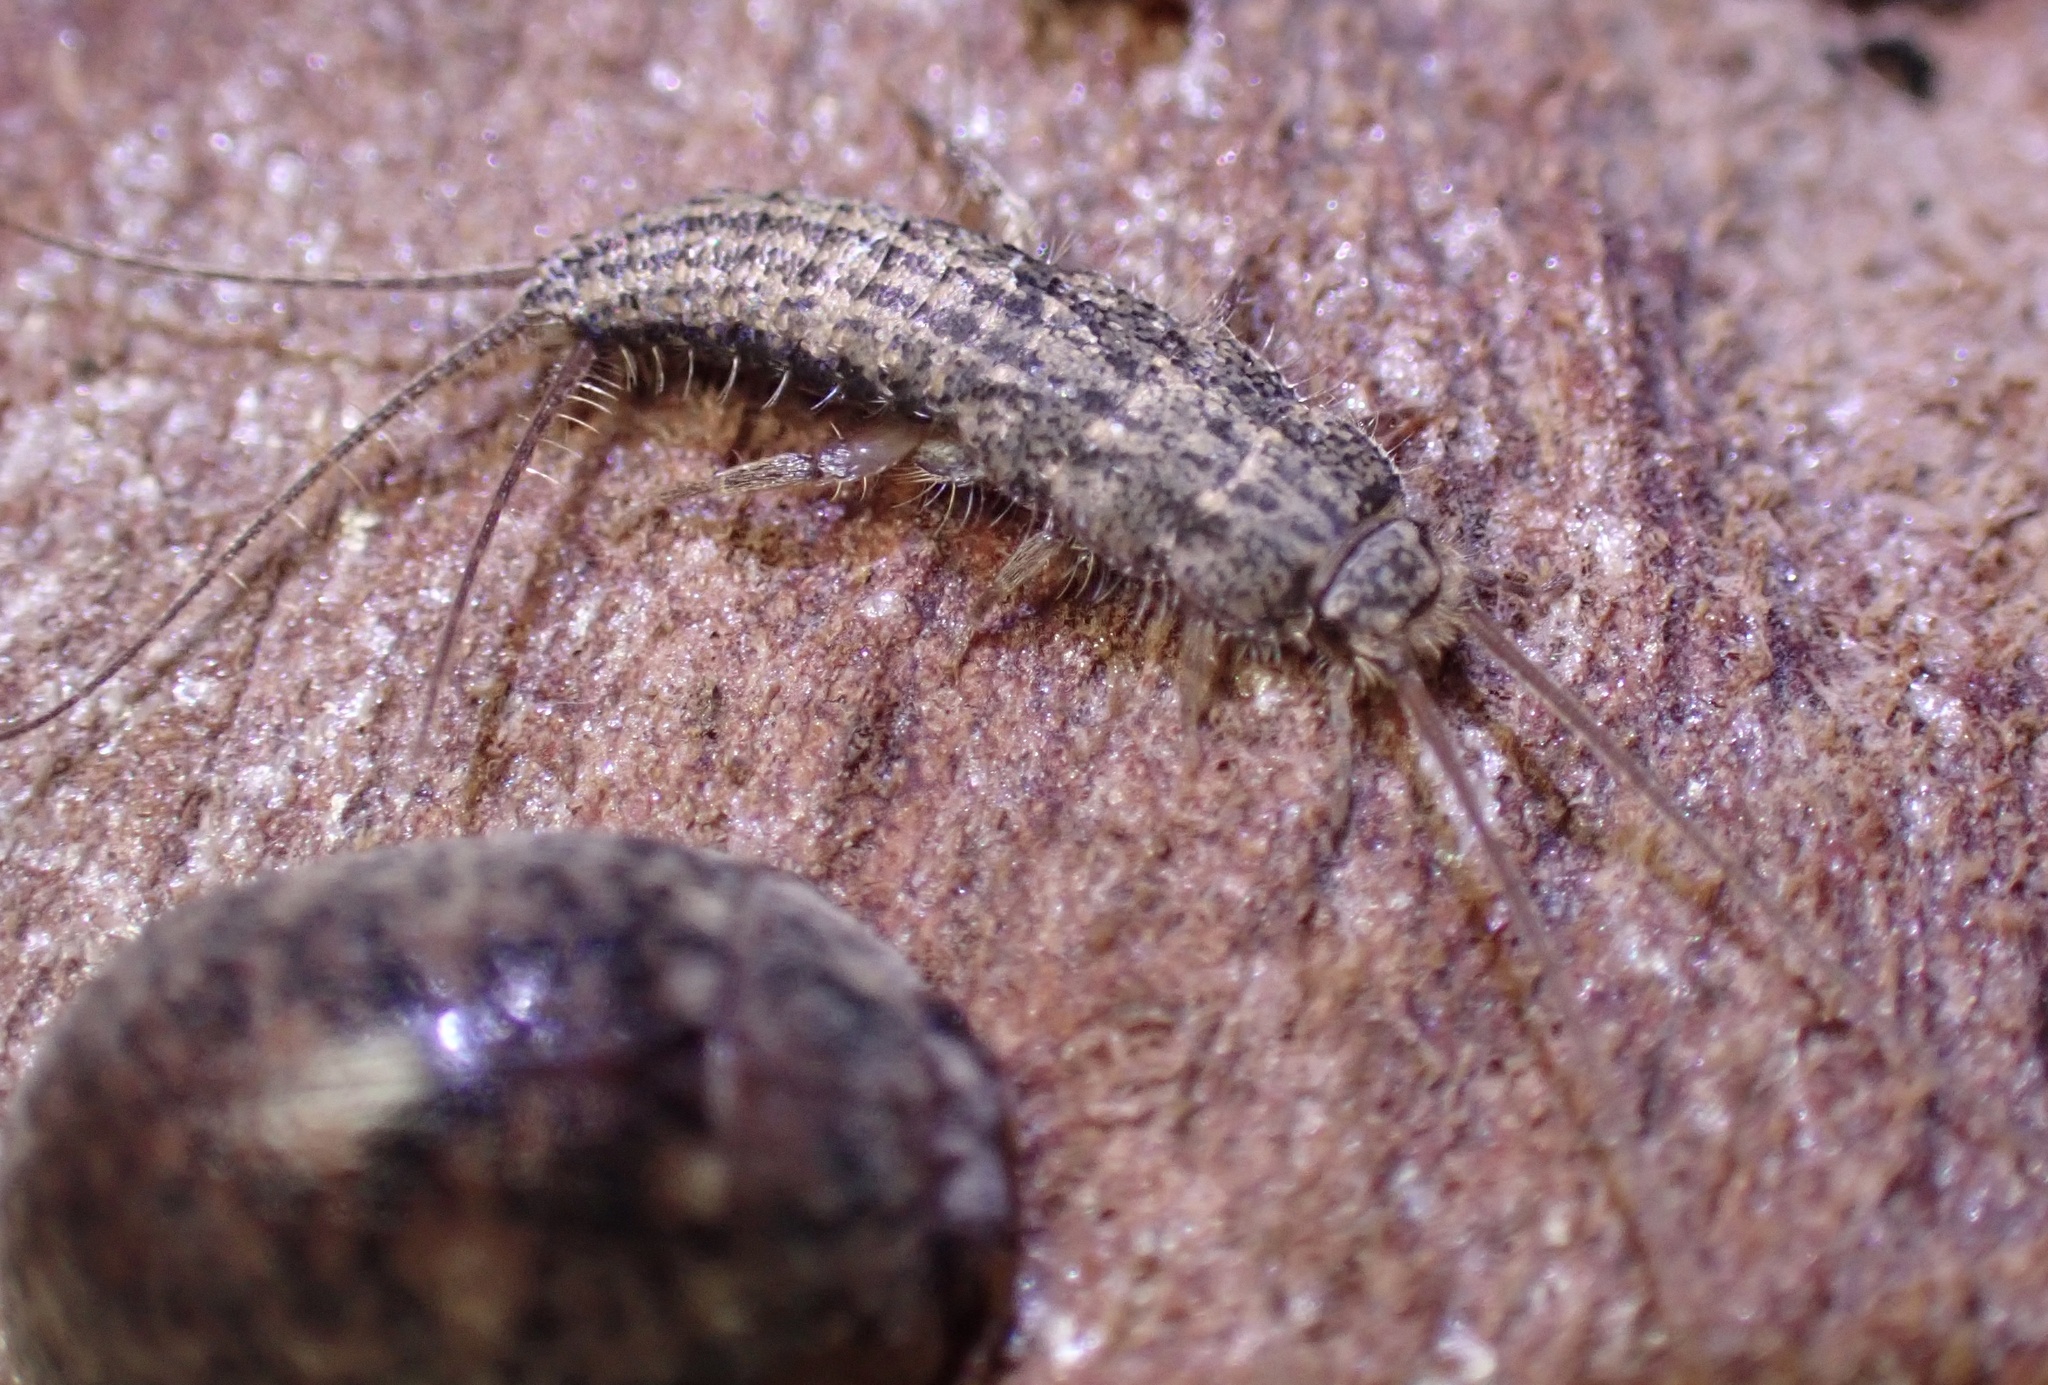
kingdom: Animalia
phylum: Arthropoda
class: Insecta
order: Zygentoma
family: Lepismatidae
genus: Ctenolepisma
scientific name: Ctenolepisma lineata
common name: Four-lined silverfish
